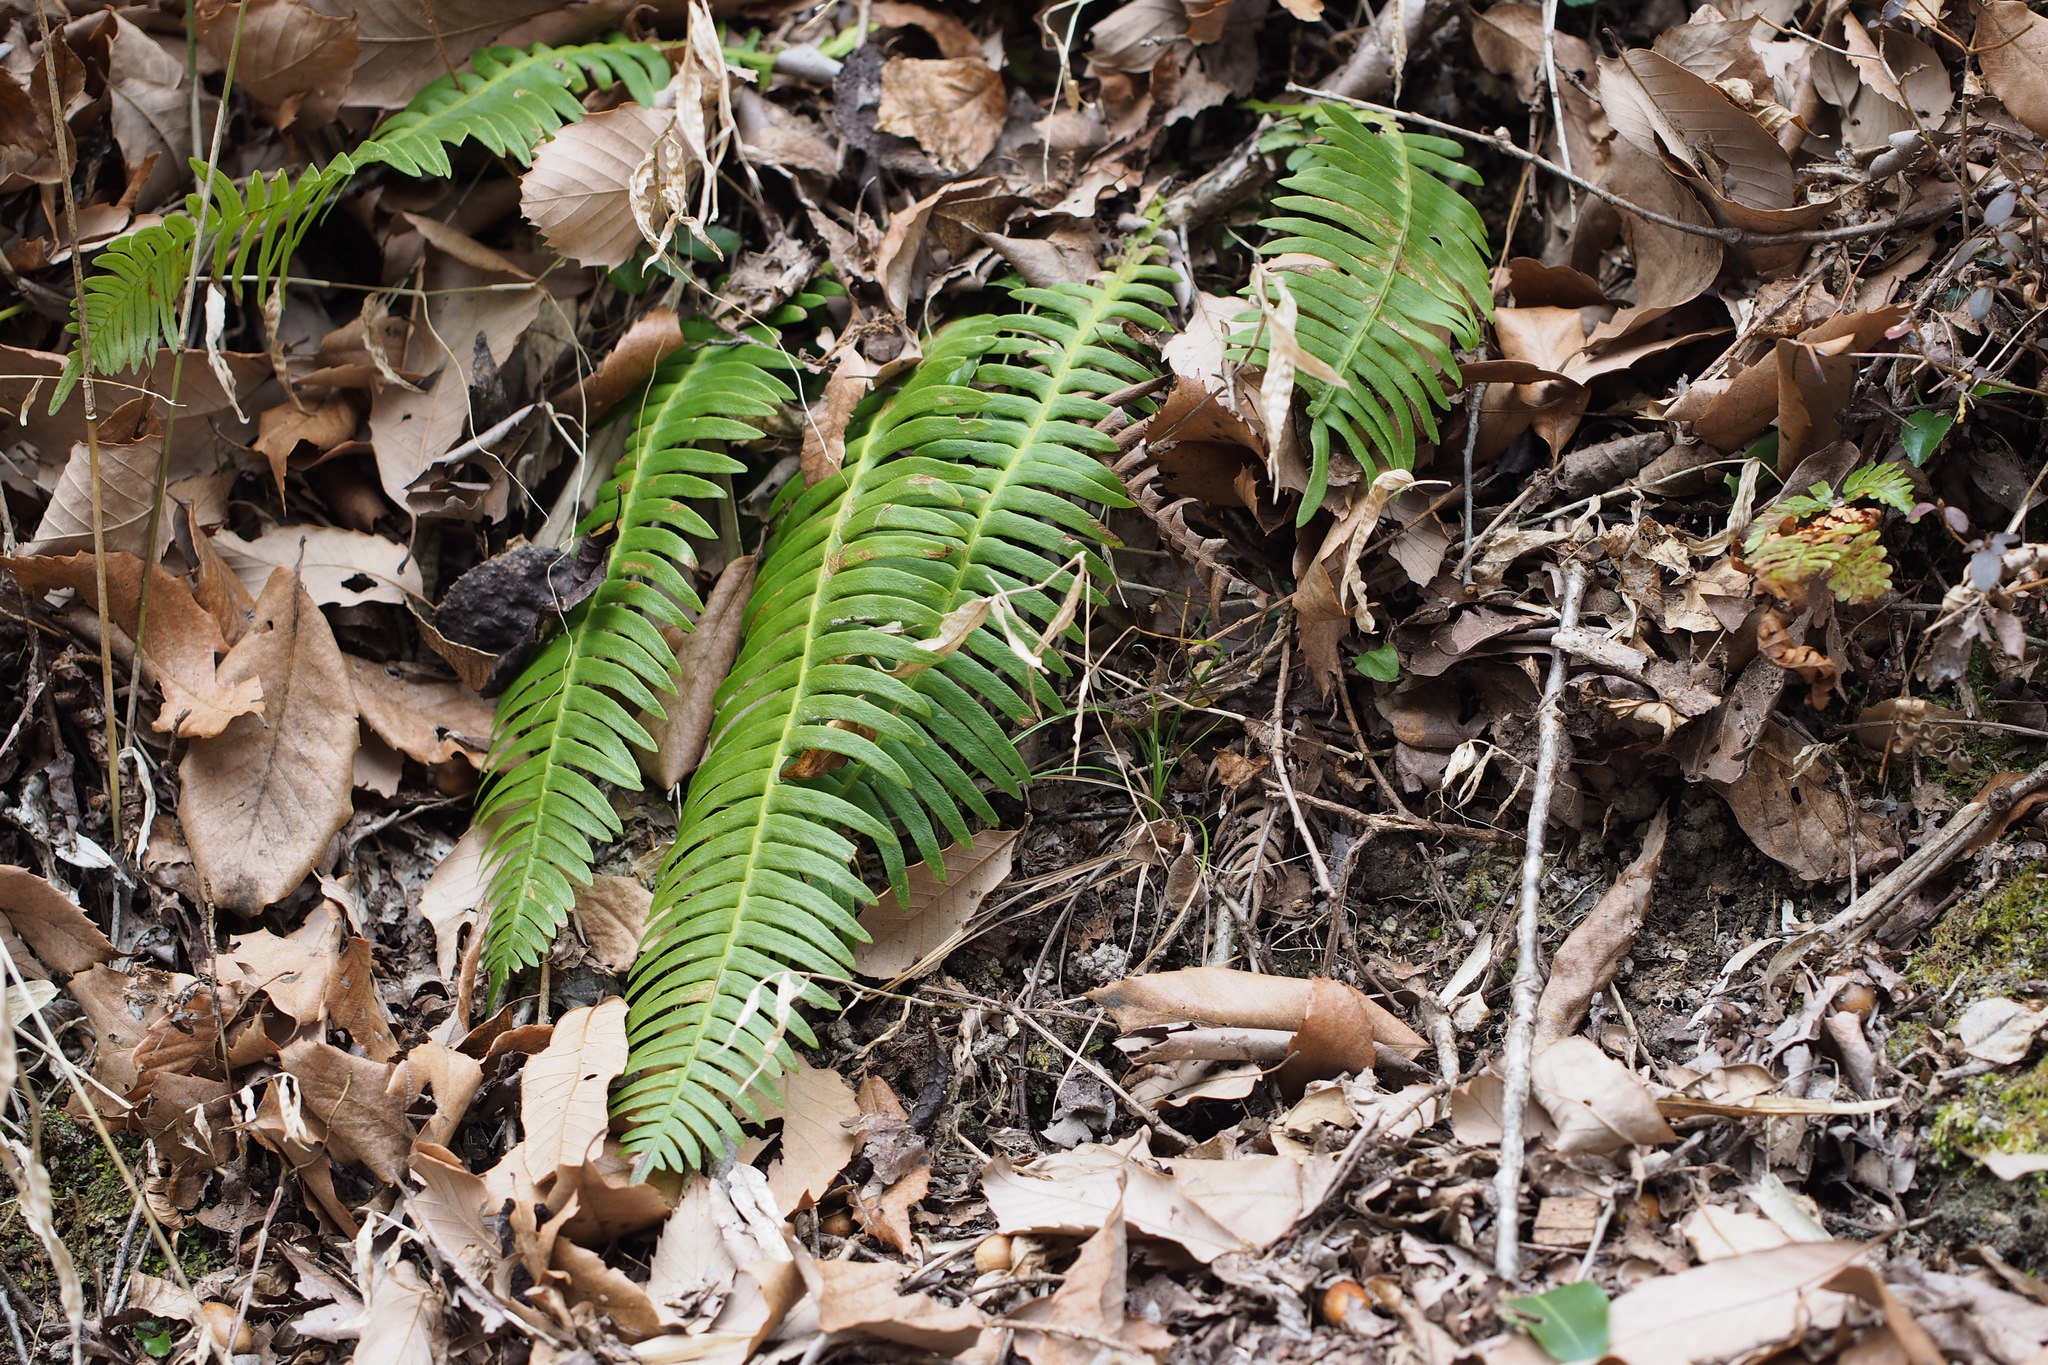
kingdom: Plantae
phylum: Tracheophyta
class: Polypodiopsida
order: Polypodiales
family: Blechnaceae
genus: Spicantopsis
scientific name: Spicantopsis niponica
